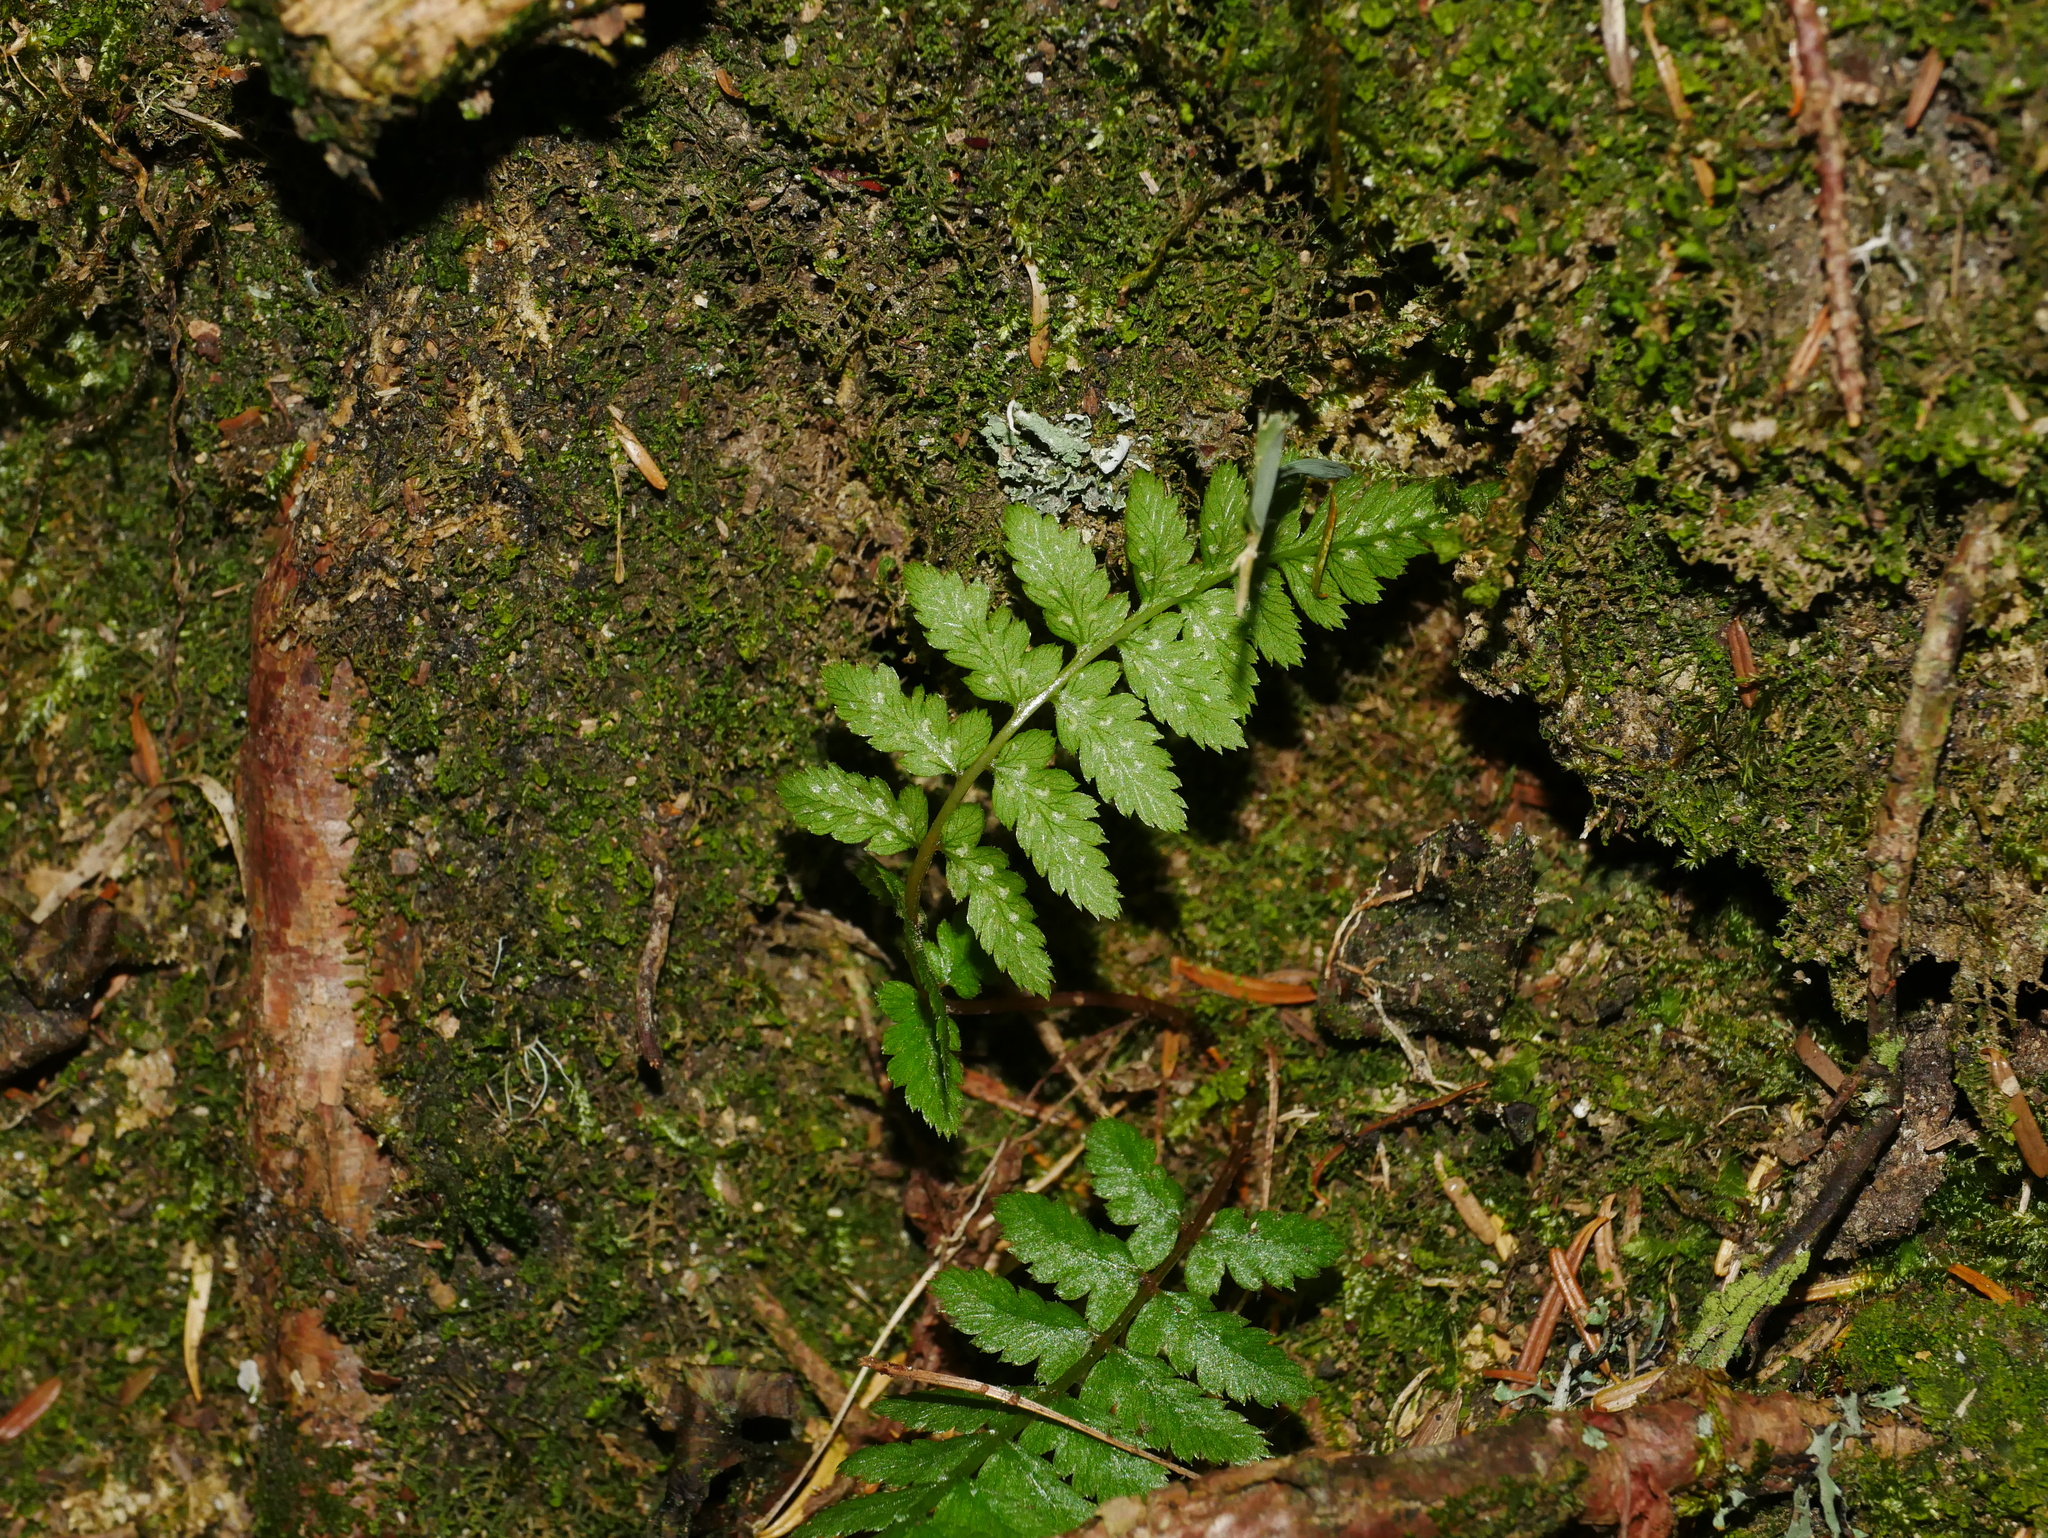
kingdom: Plantae
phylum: Tracheophyta
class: Polypodiopsida
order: Polypodiales
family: Athyriaceae
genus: Athyrium
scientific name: Athyrium oppositipennum
